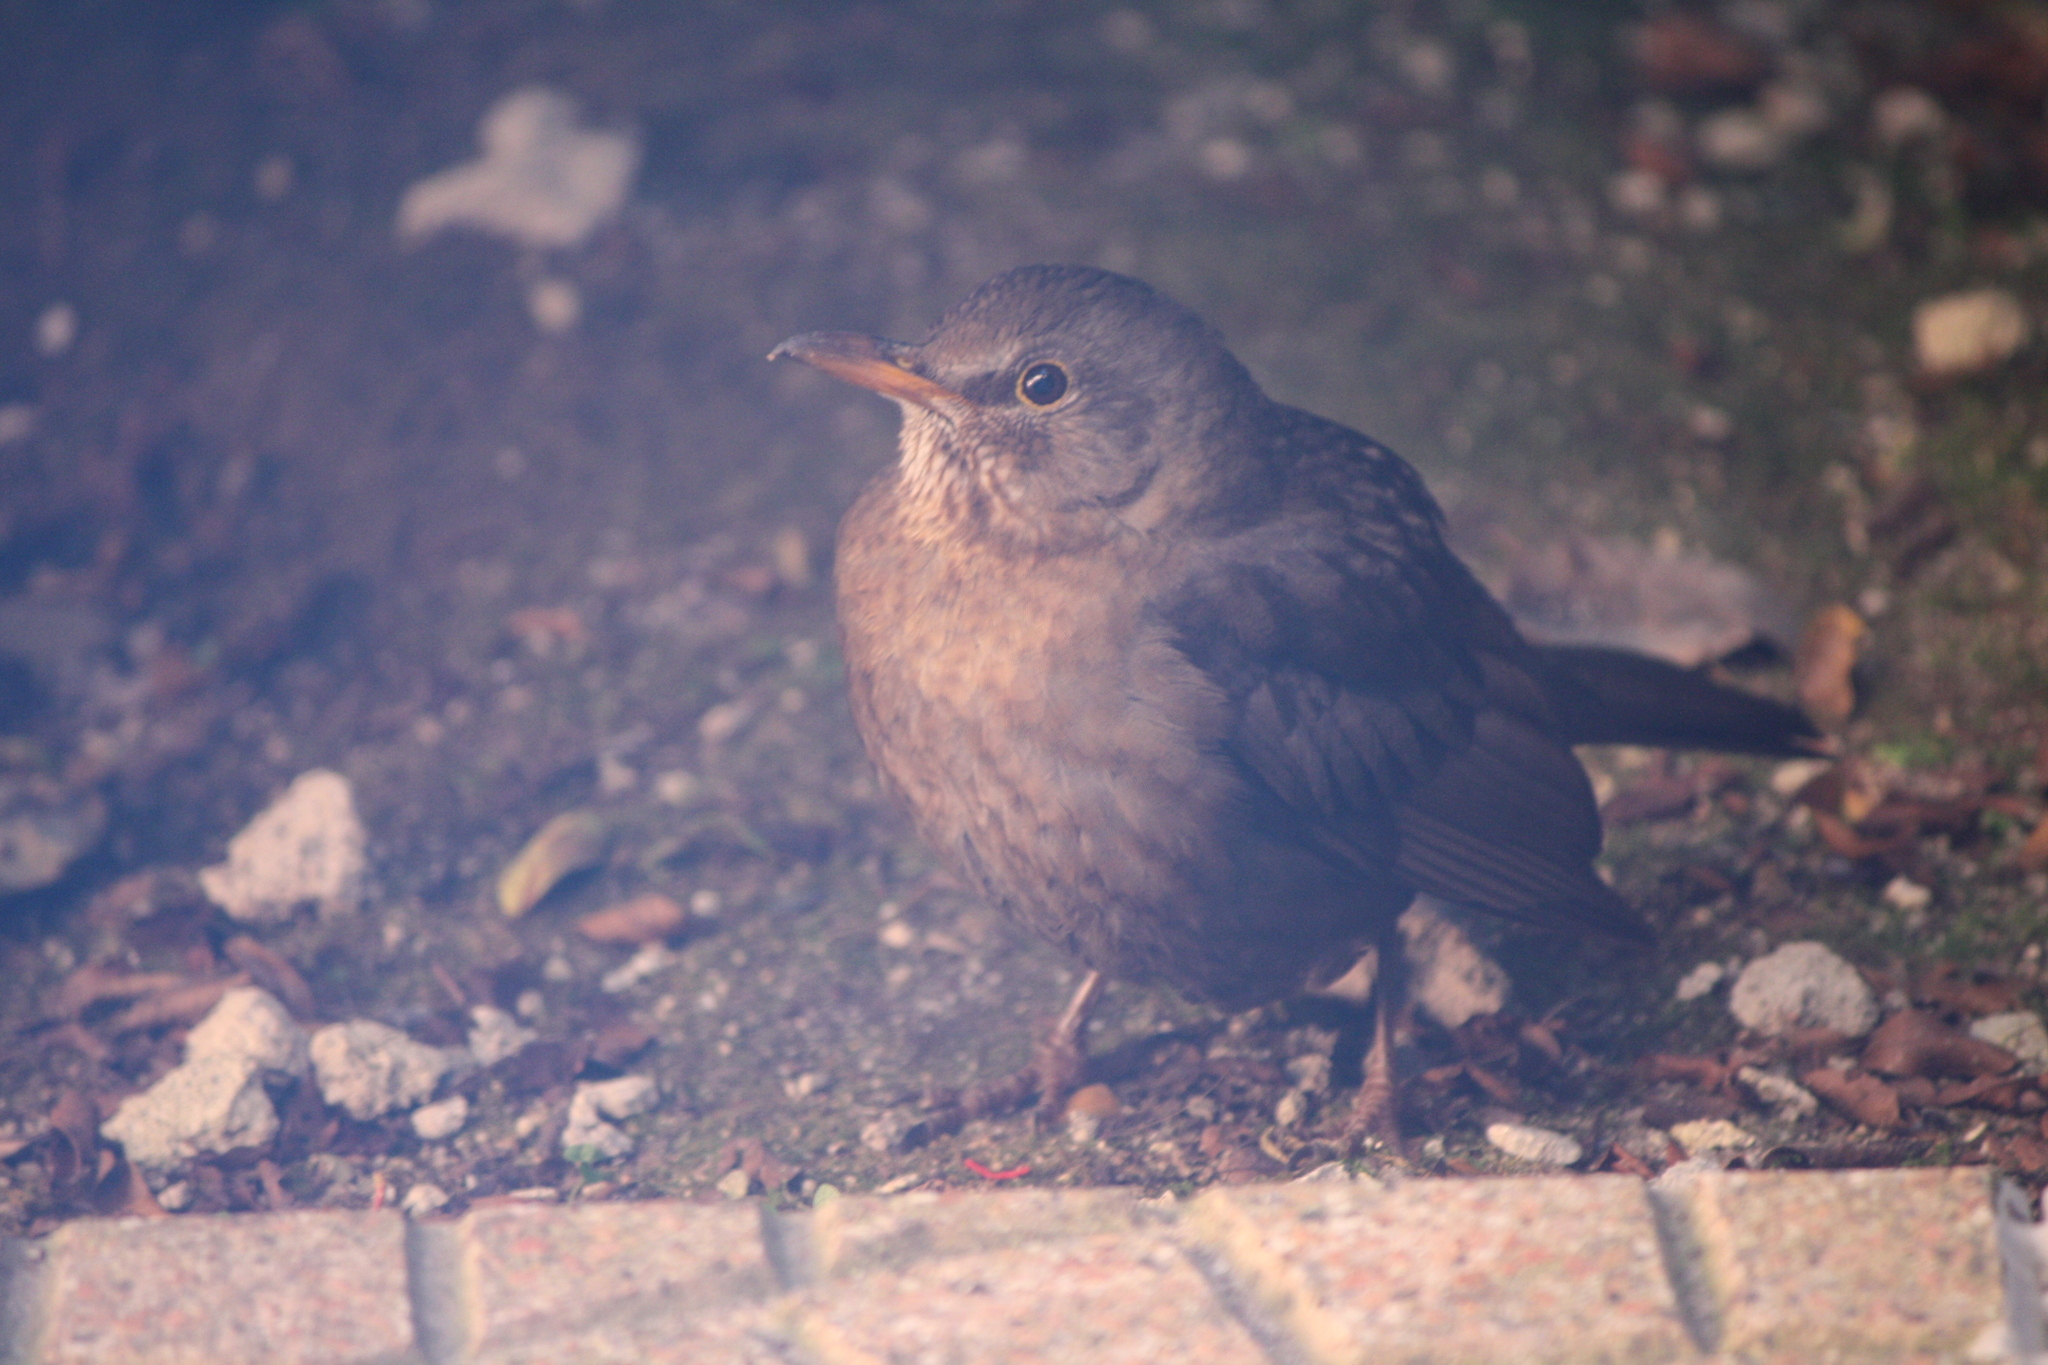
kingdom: Animalia
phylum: Chordata
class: Aves
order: Passeriformes
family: Turdidae
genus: Turdus
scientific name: Turdus merula
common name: Common blackbird
